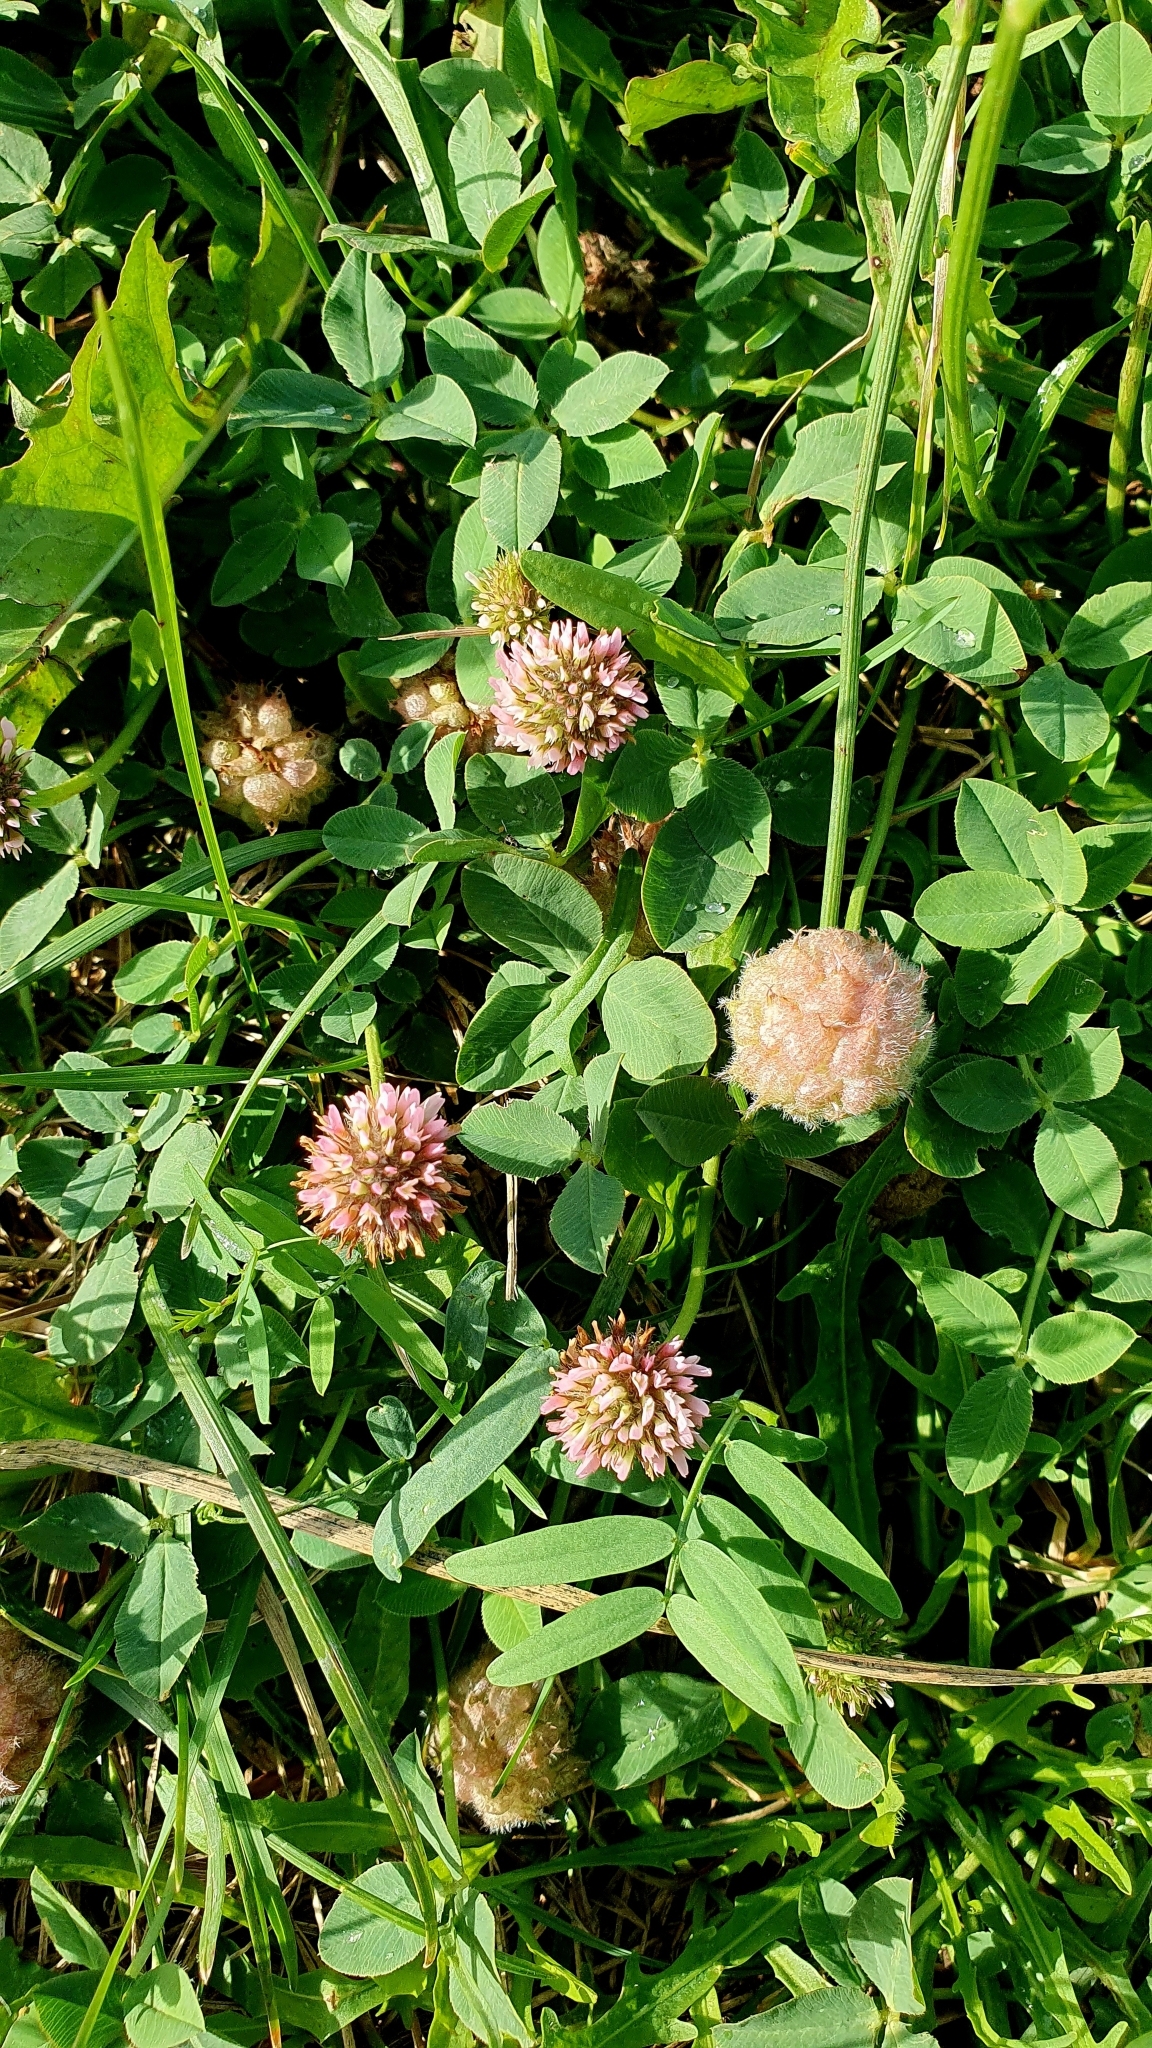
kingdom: Plantae
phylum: Tracheophyta
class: Magnoliopsida
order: Fabales
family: Fabaceae
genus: Trifolium
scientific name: Trifolium fragiferum
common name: Strawberry clover
